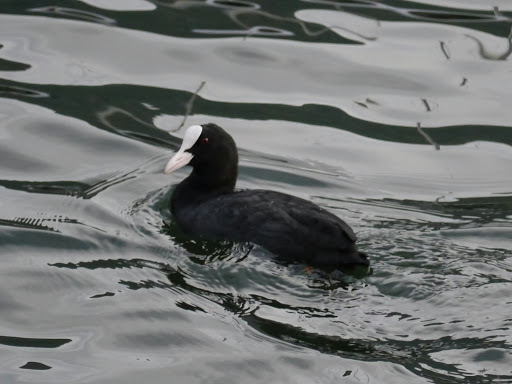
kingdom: Animalia
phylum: Chordata
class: Aves
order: Gruiformes
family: Rallidae
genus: Fulica
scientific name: Fulica atra
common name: Eurasian coot
